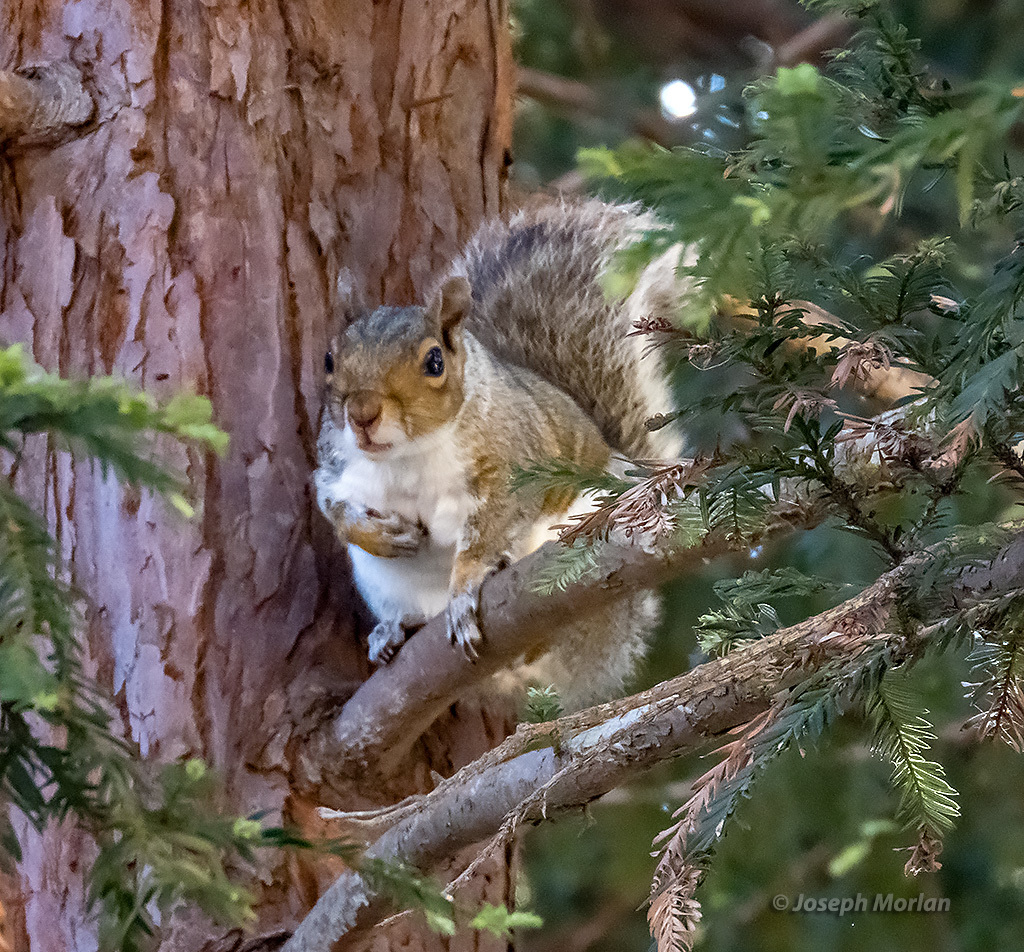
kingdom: Animalia
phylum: Chordata
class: Mammalia
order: Rodentia
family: Sciuridae
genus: Sciurus
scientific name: Sciurus carolinensis
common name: Eastern gray squirrel
